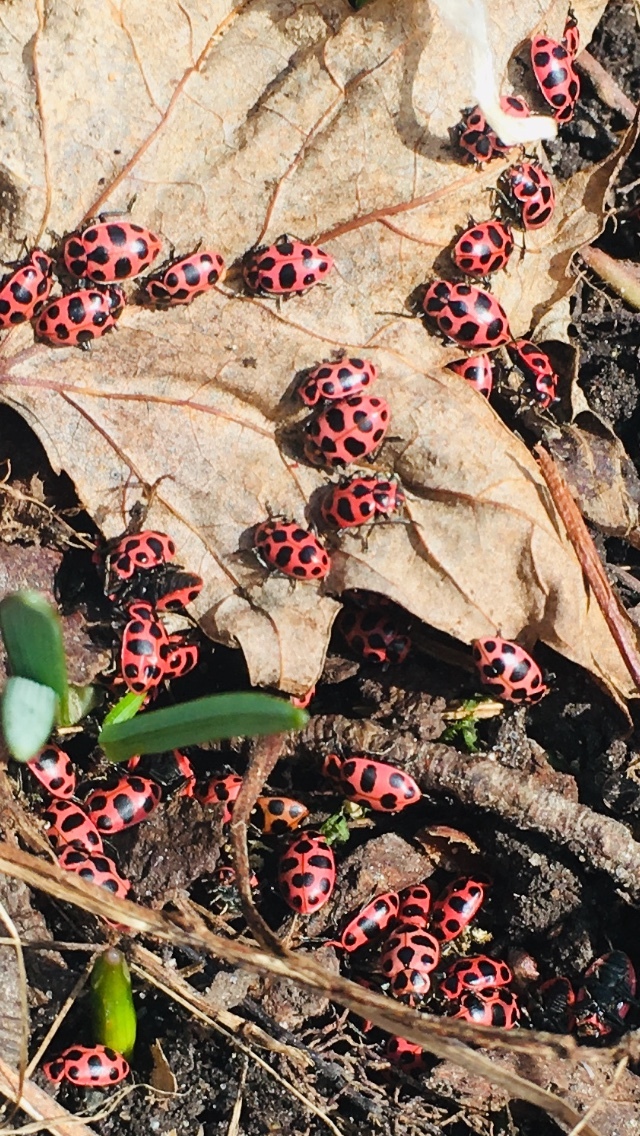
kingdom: Animalia
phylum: Arthropoda
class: Insecta
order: Coleoptera
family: Coccinellidae
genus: Coleomegilla
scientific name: Coleomegilla maculata
